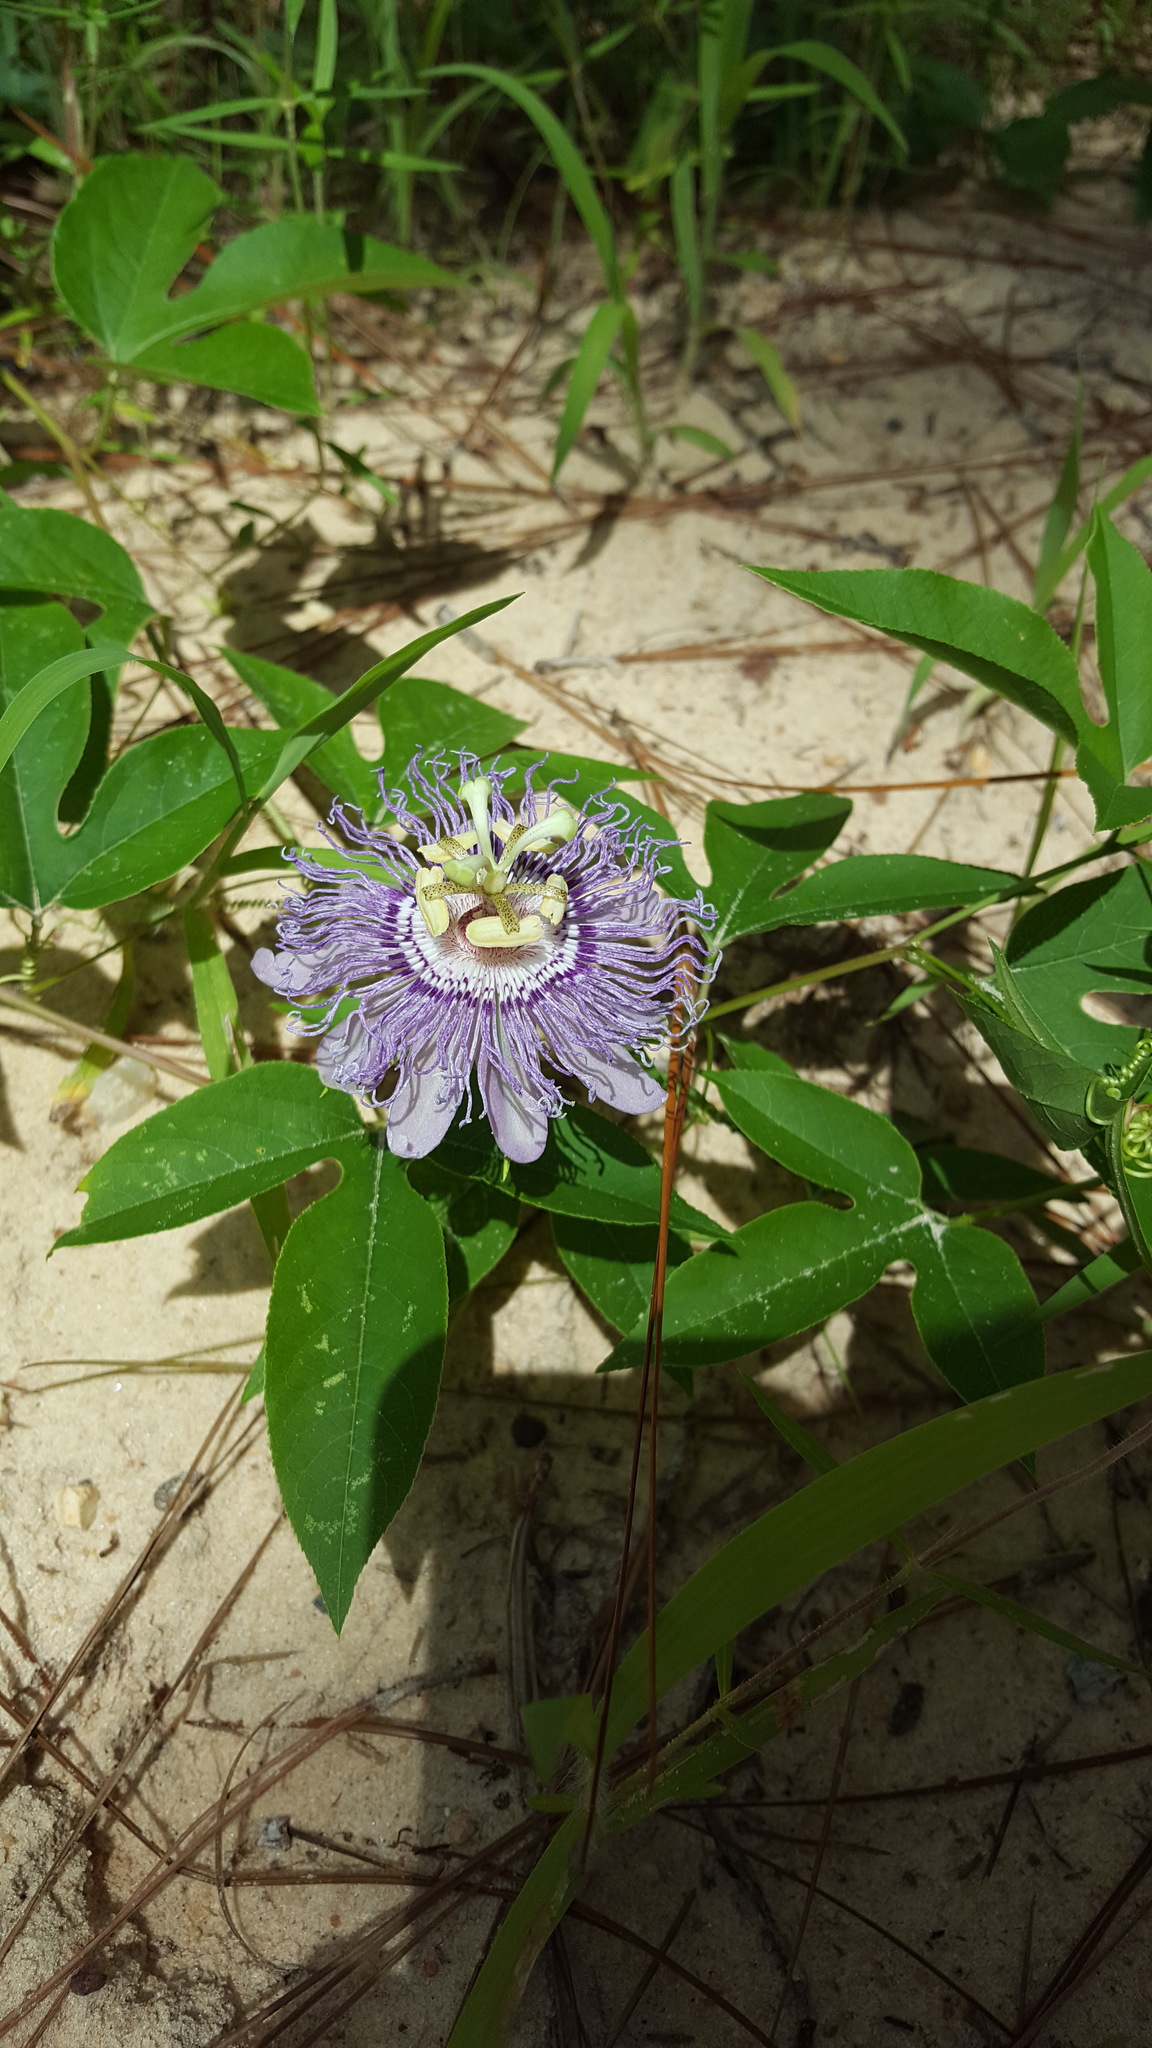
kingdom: Plantae
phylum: Tracheophyta
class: Magnoliopsida
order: Malpighiales
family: Passifloraceae
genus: Passiflora
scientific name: Passiflora incarnata
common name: Apricot-vine
